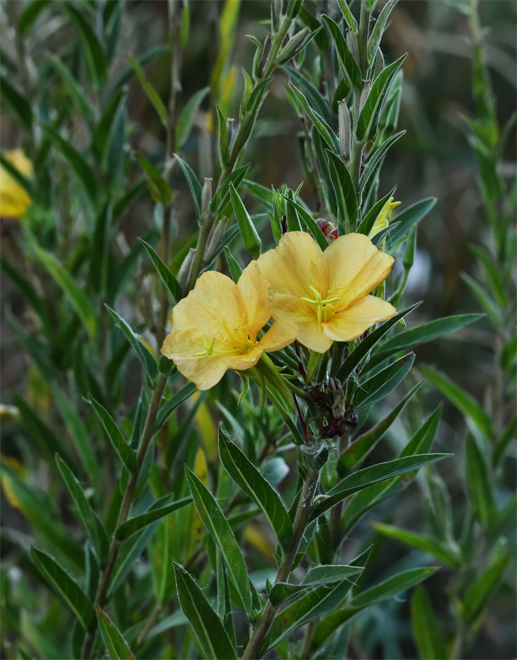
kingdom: Plantae
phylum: Tracheophyta
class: Magnoliopsida
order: Myrtales
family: Onagraceae
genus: Oenothera
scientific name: Oenothera elata
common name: Hooker's evening-primrose
